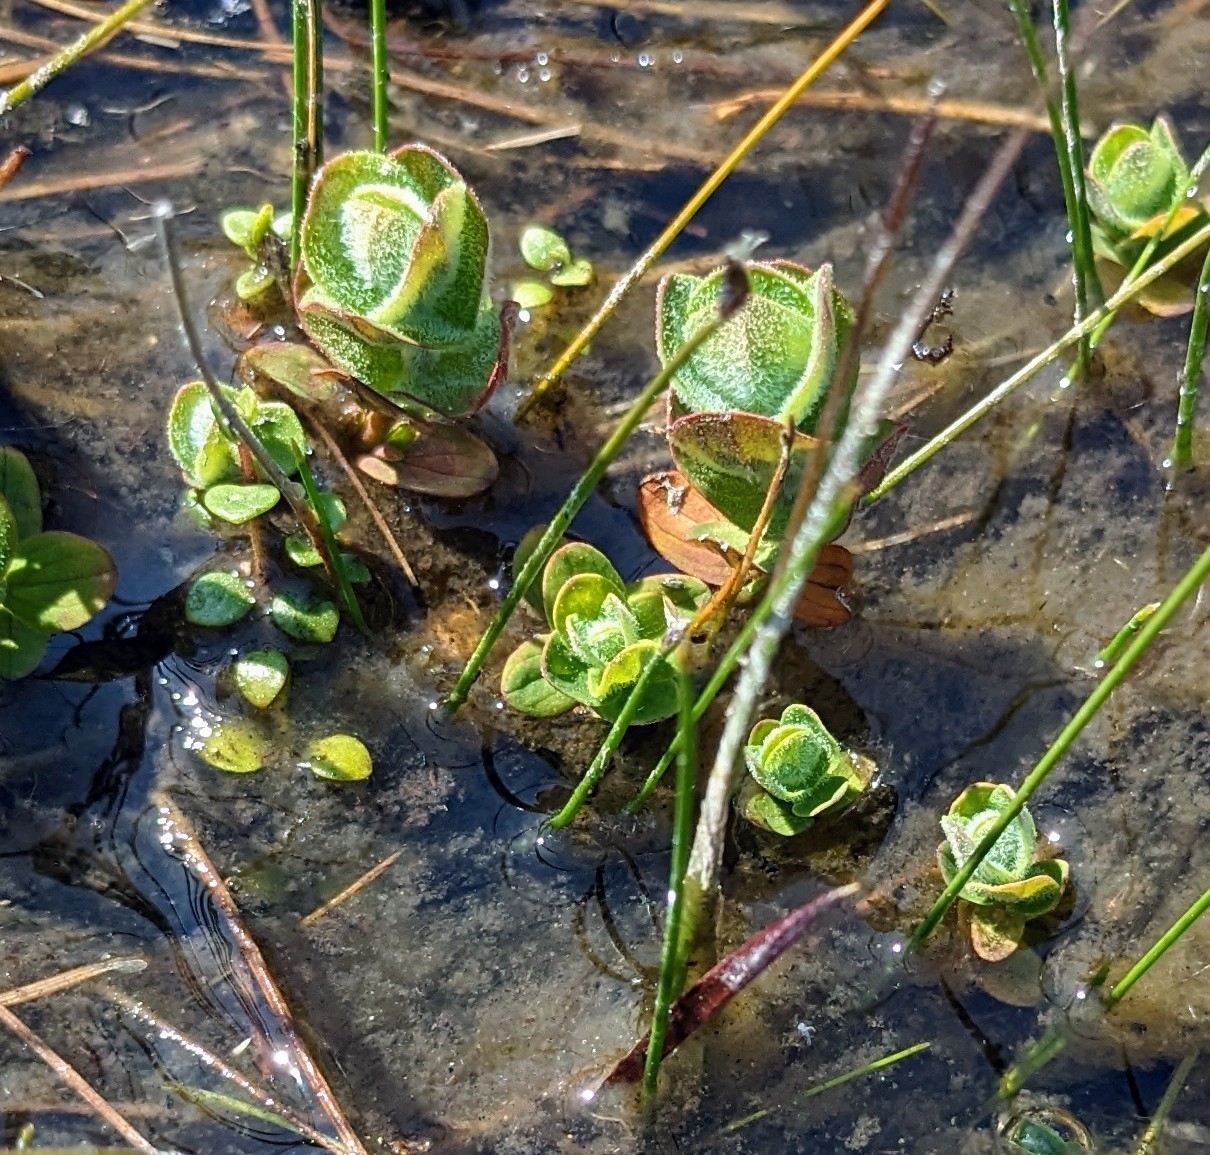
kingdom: Plantae
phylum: Tracheophyta
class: Magnoliopsida
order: Malpighiales
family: Hypericaceae
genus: Hypericum
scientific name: Hypericum elodes
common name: Marsh st. john's-wort
